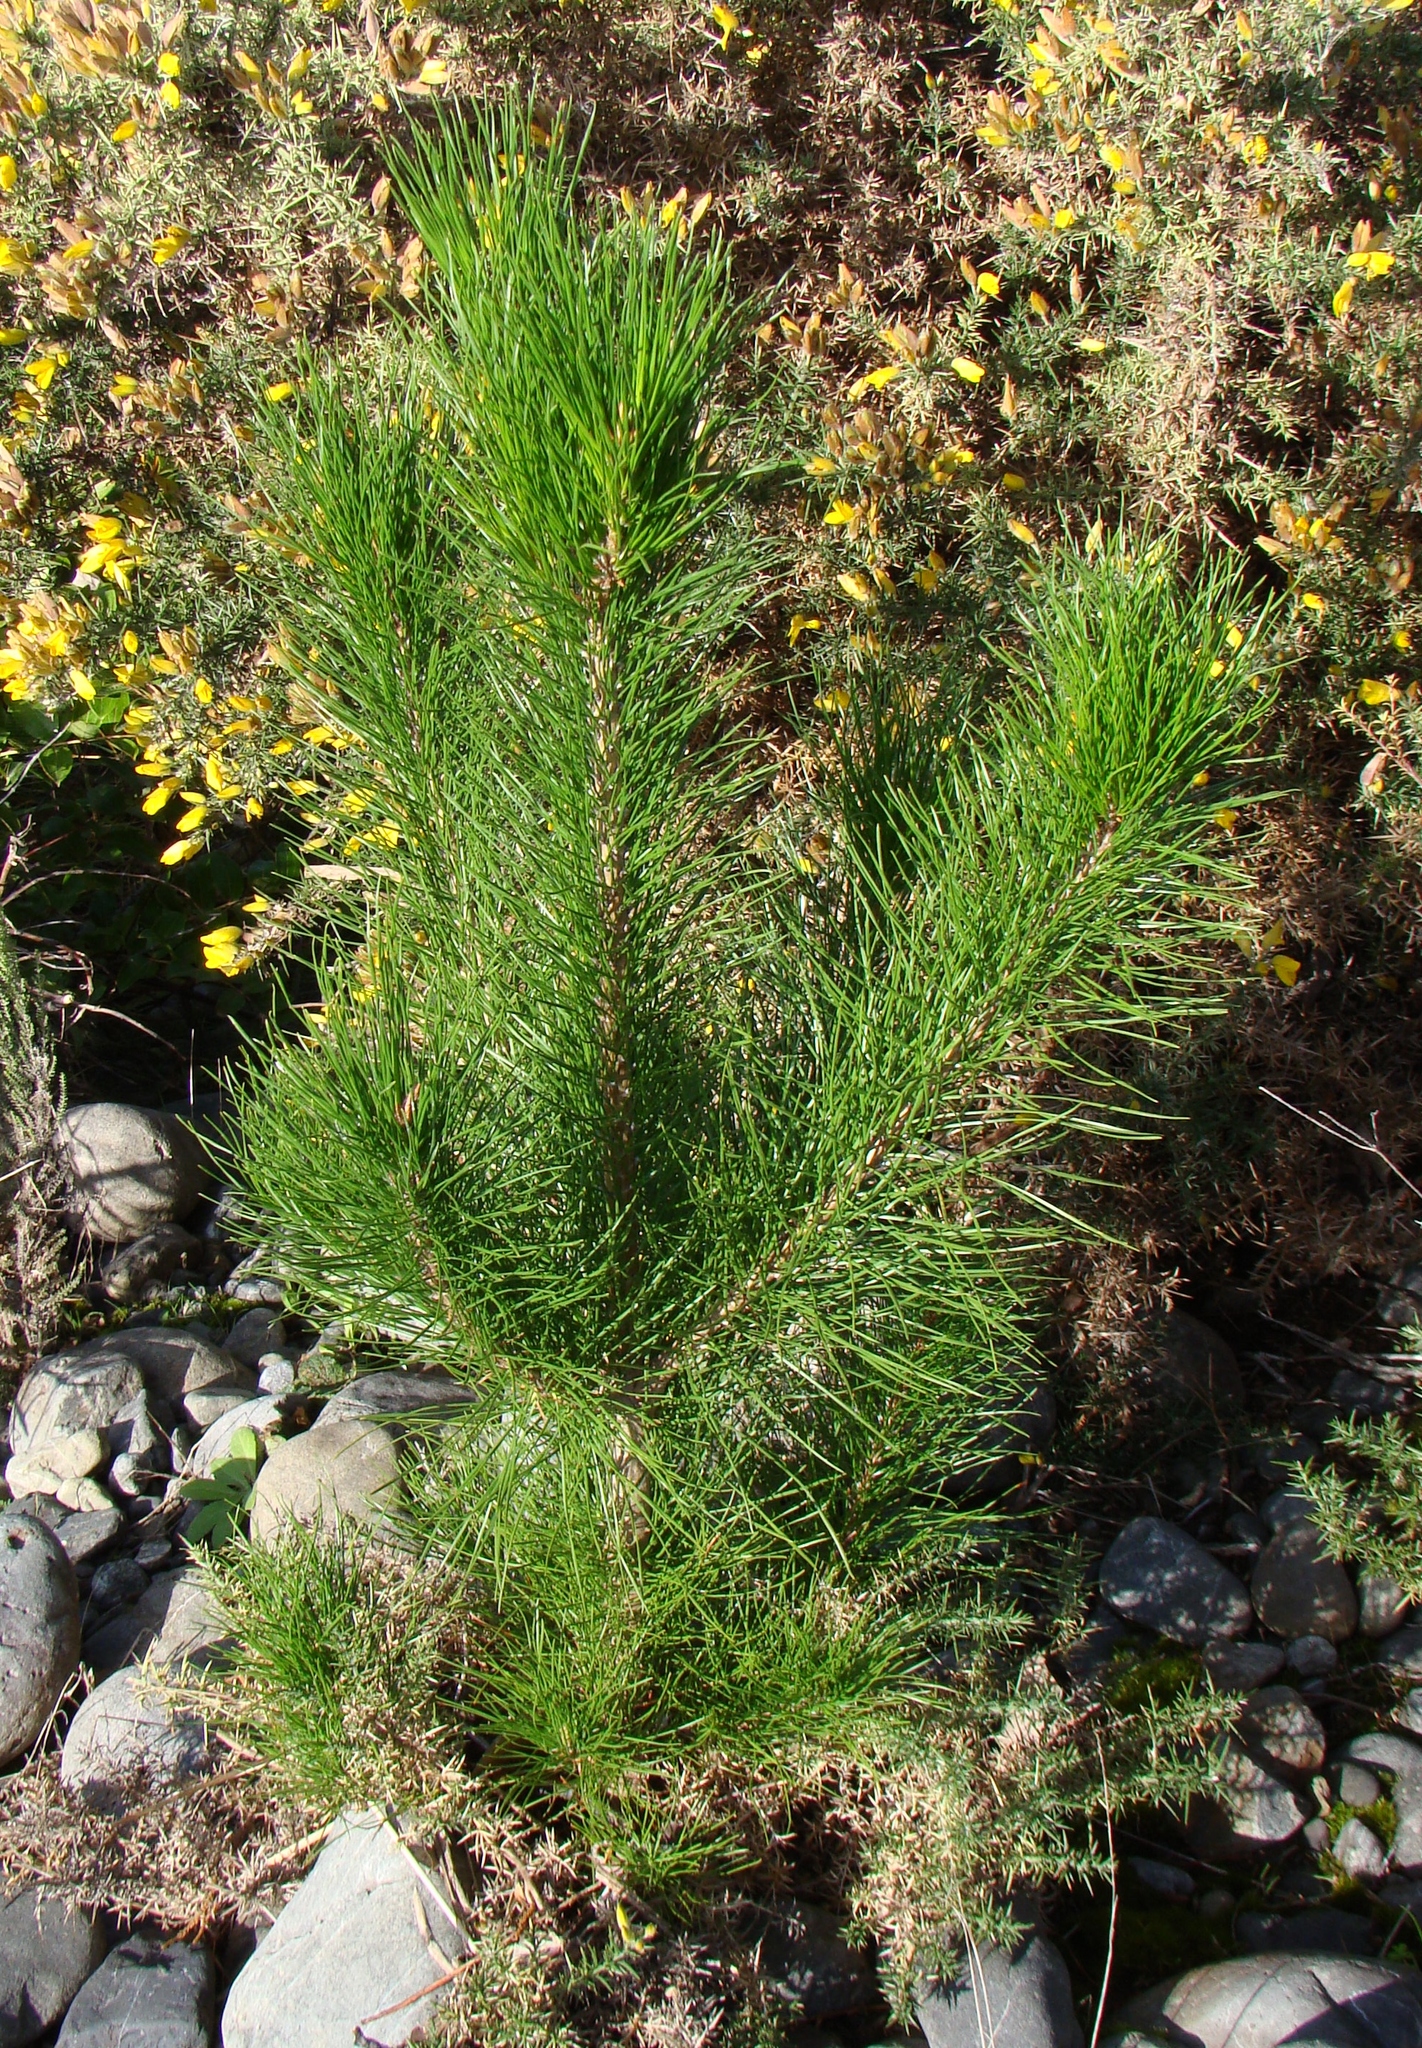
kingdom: Plantae
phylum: Tracheophyta
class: Pinopsida
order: Pinales
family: Pinaceae
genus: Pinus
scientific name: Pinus radiata
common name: Monterey pine
